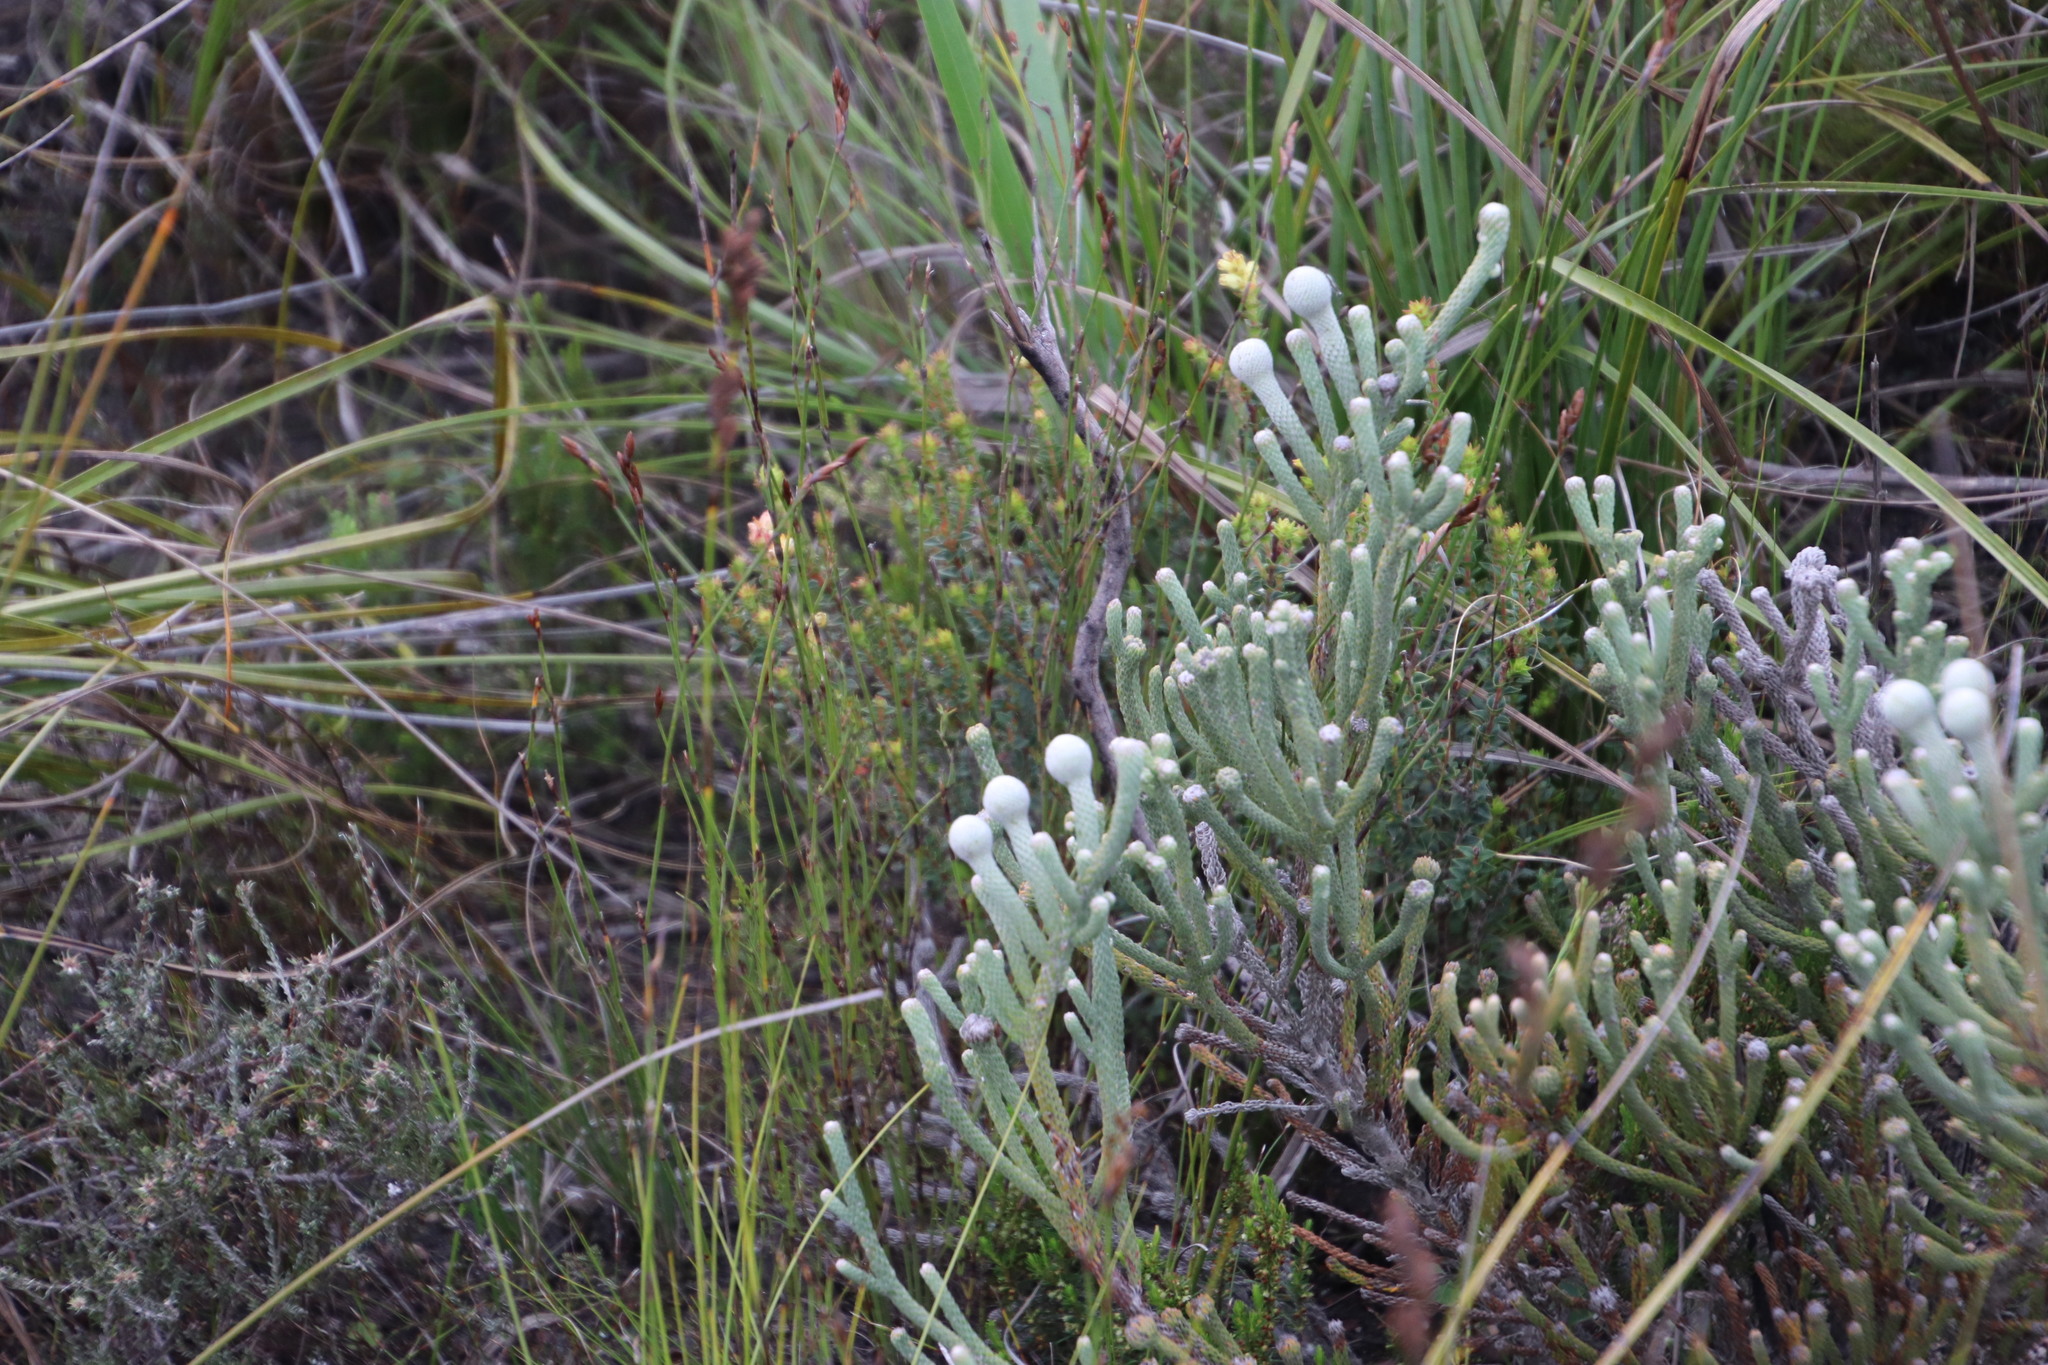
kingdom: Plantae
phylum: Tracheophyta
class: Magnoliopsida
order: Bruniales
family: Bruniaceae
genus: Brunia
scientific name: Brunia laevis
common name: Silver brunia
